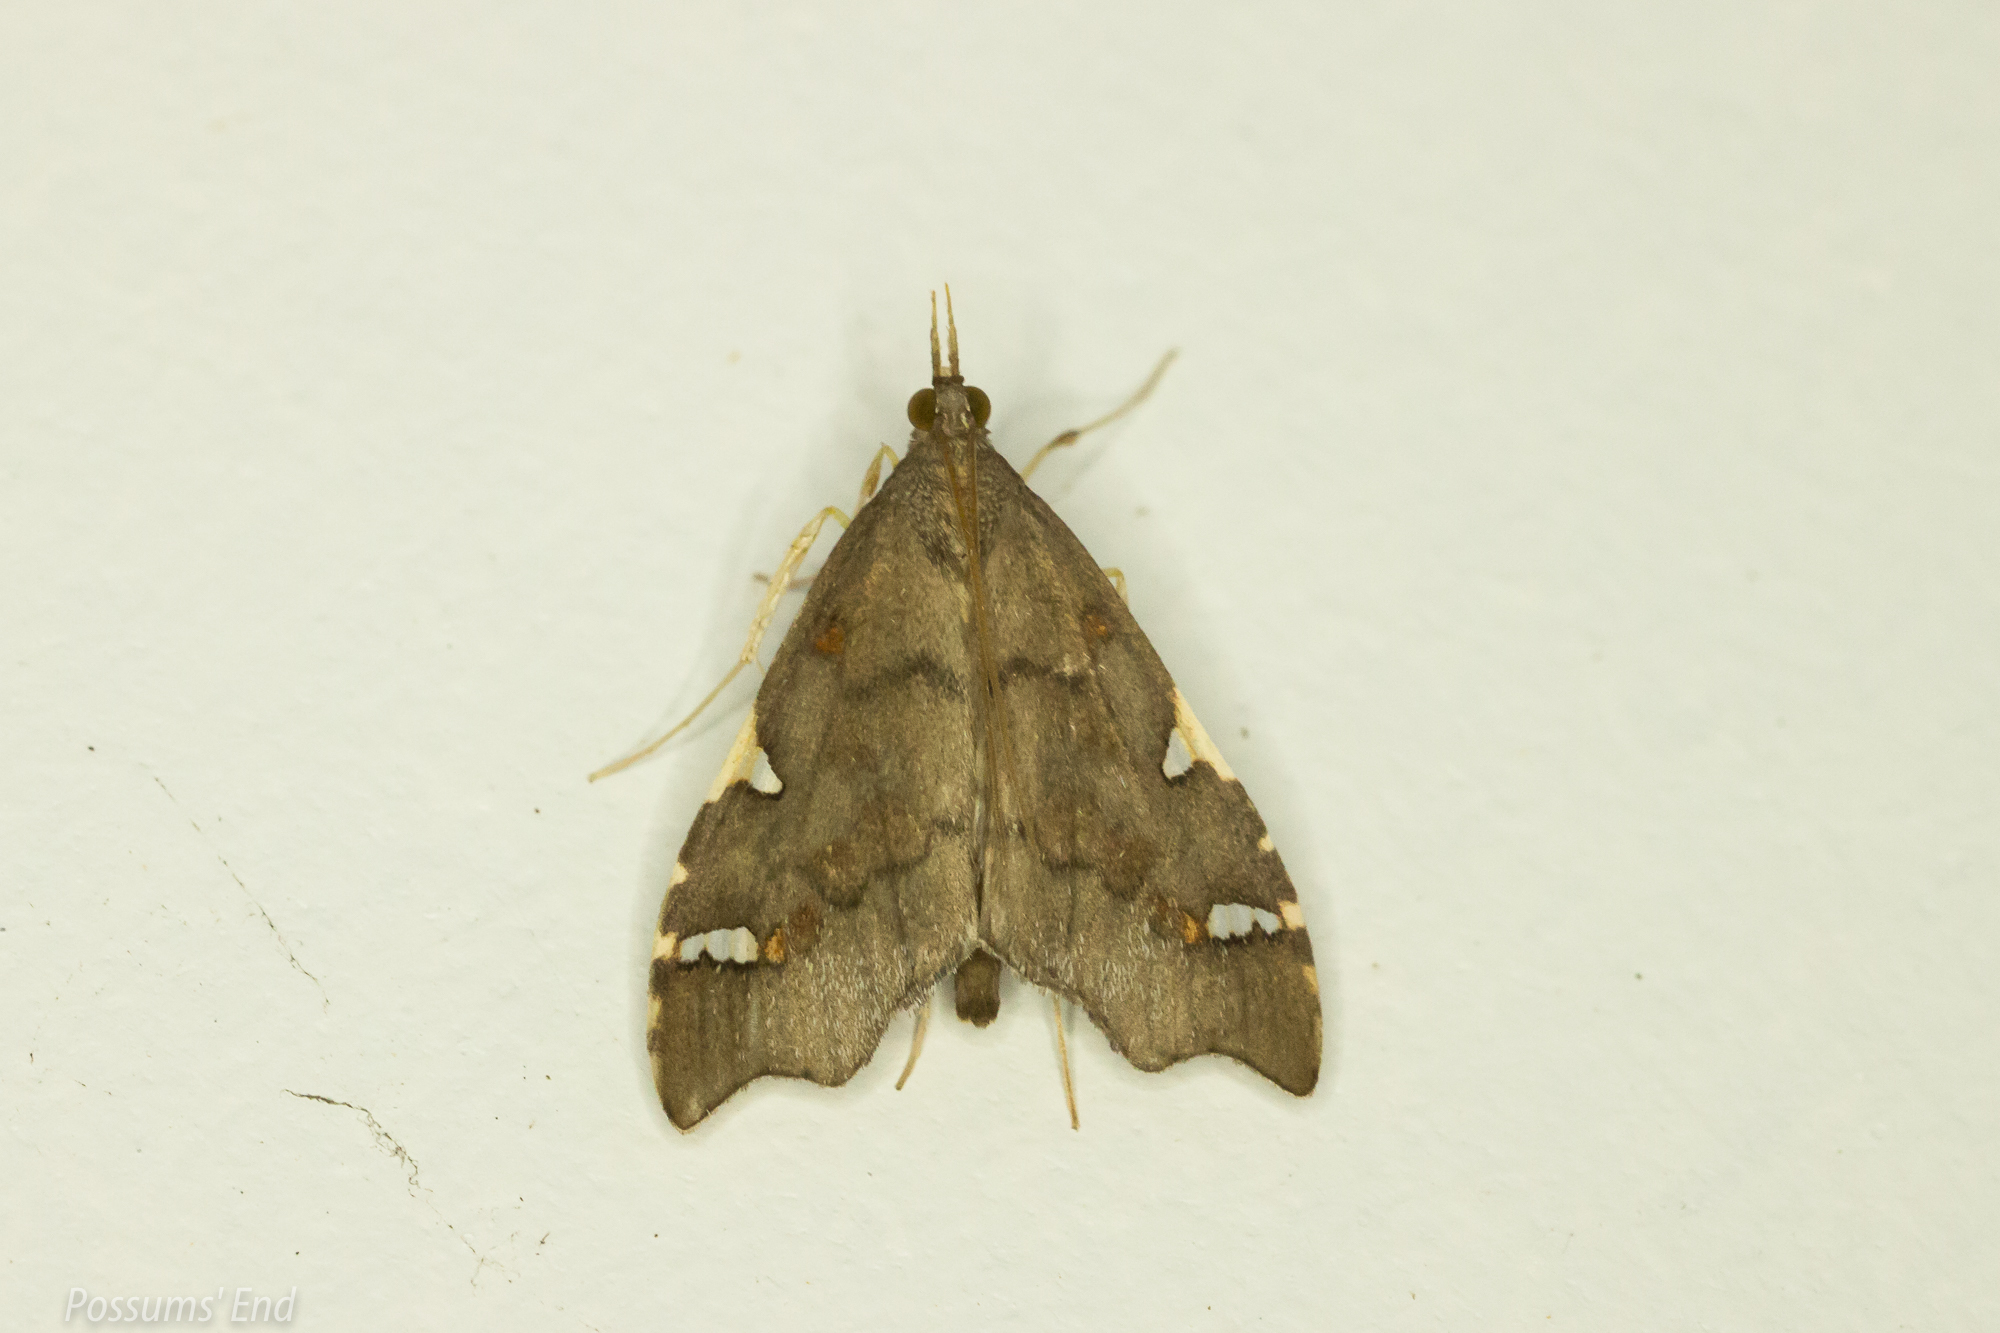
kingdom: Animalia
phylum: Arthropoda
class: Insecta
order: Lepidoptera
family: Crambidae
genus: Deana
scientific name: Deana hybreasalis
